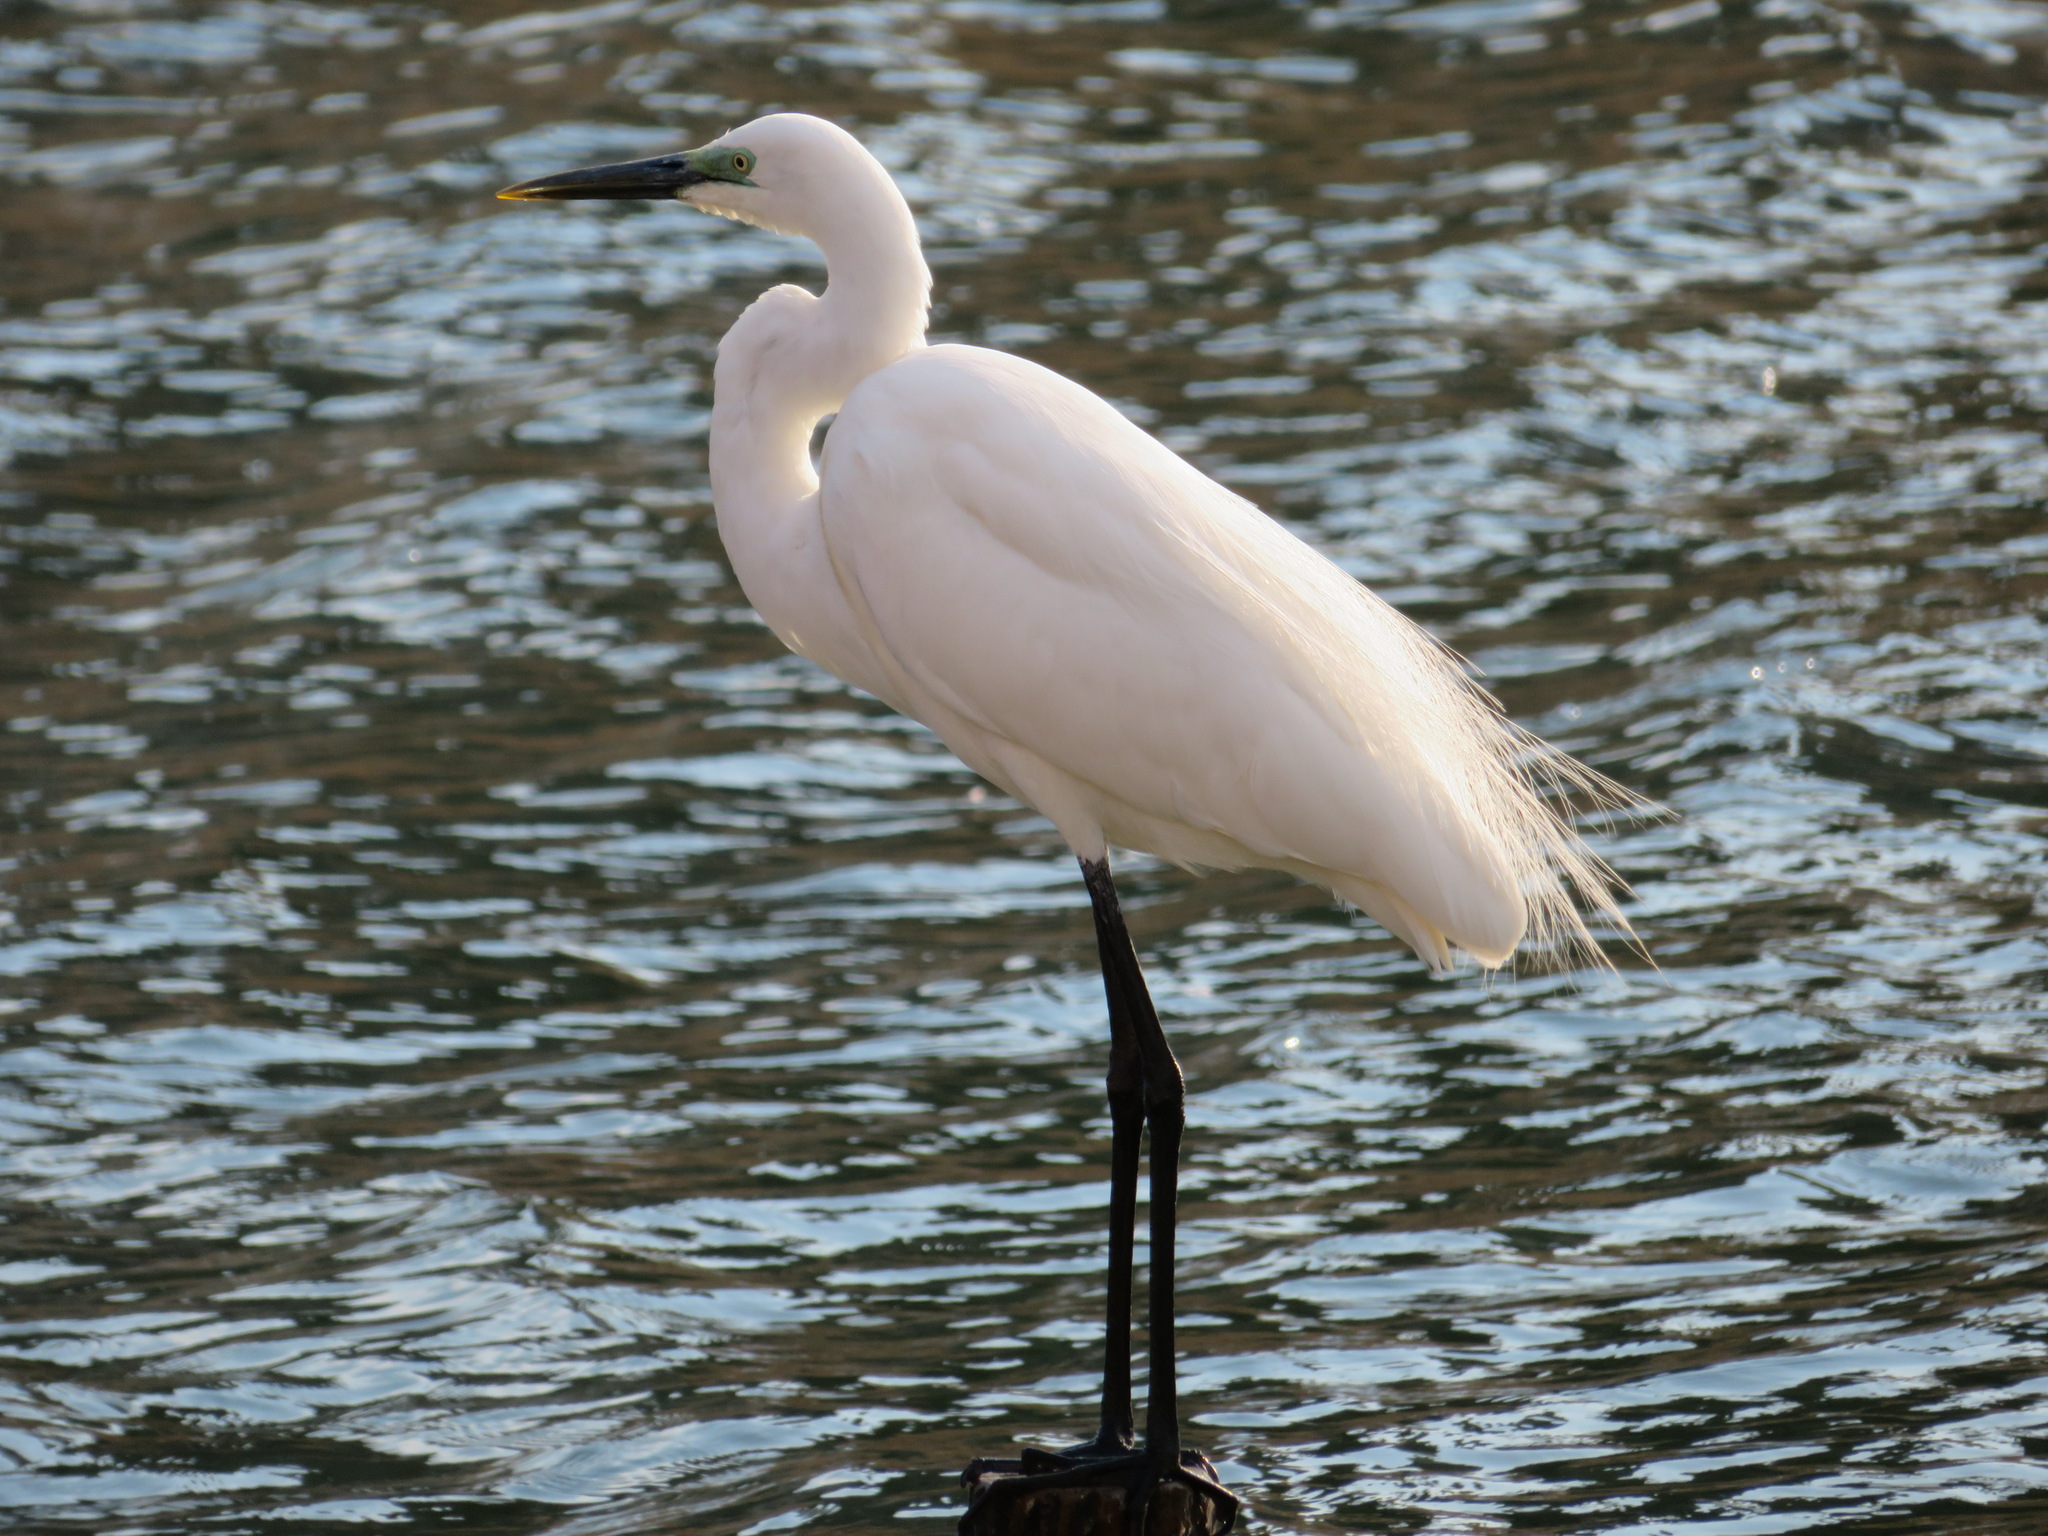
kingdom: Animalia
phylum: Chordata
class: Aves
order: Pelecaniformes
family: Ardeidae
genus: Ardea
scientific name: Ardea alba
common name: Great egret
